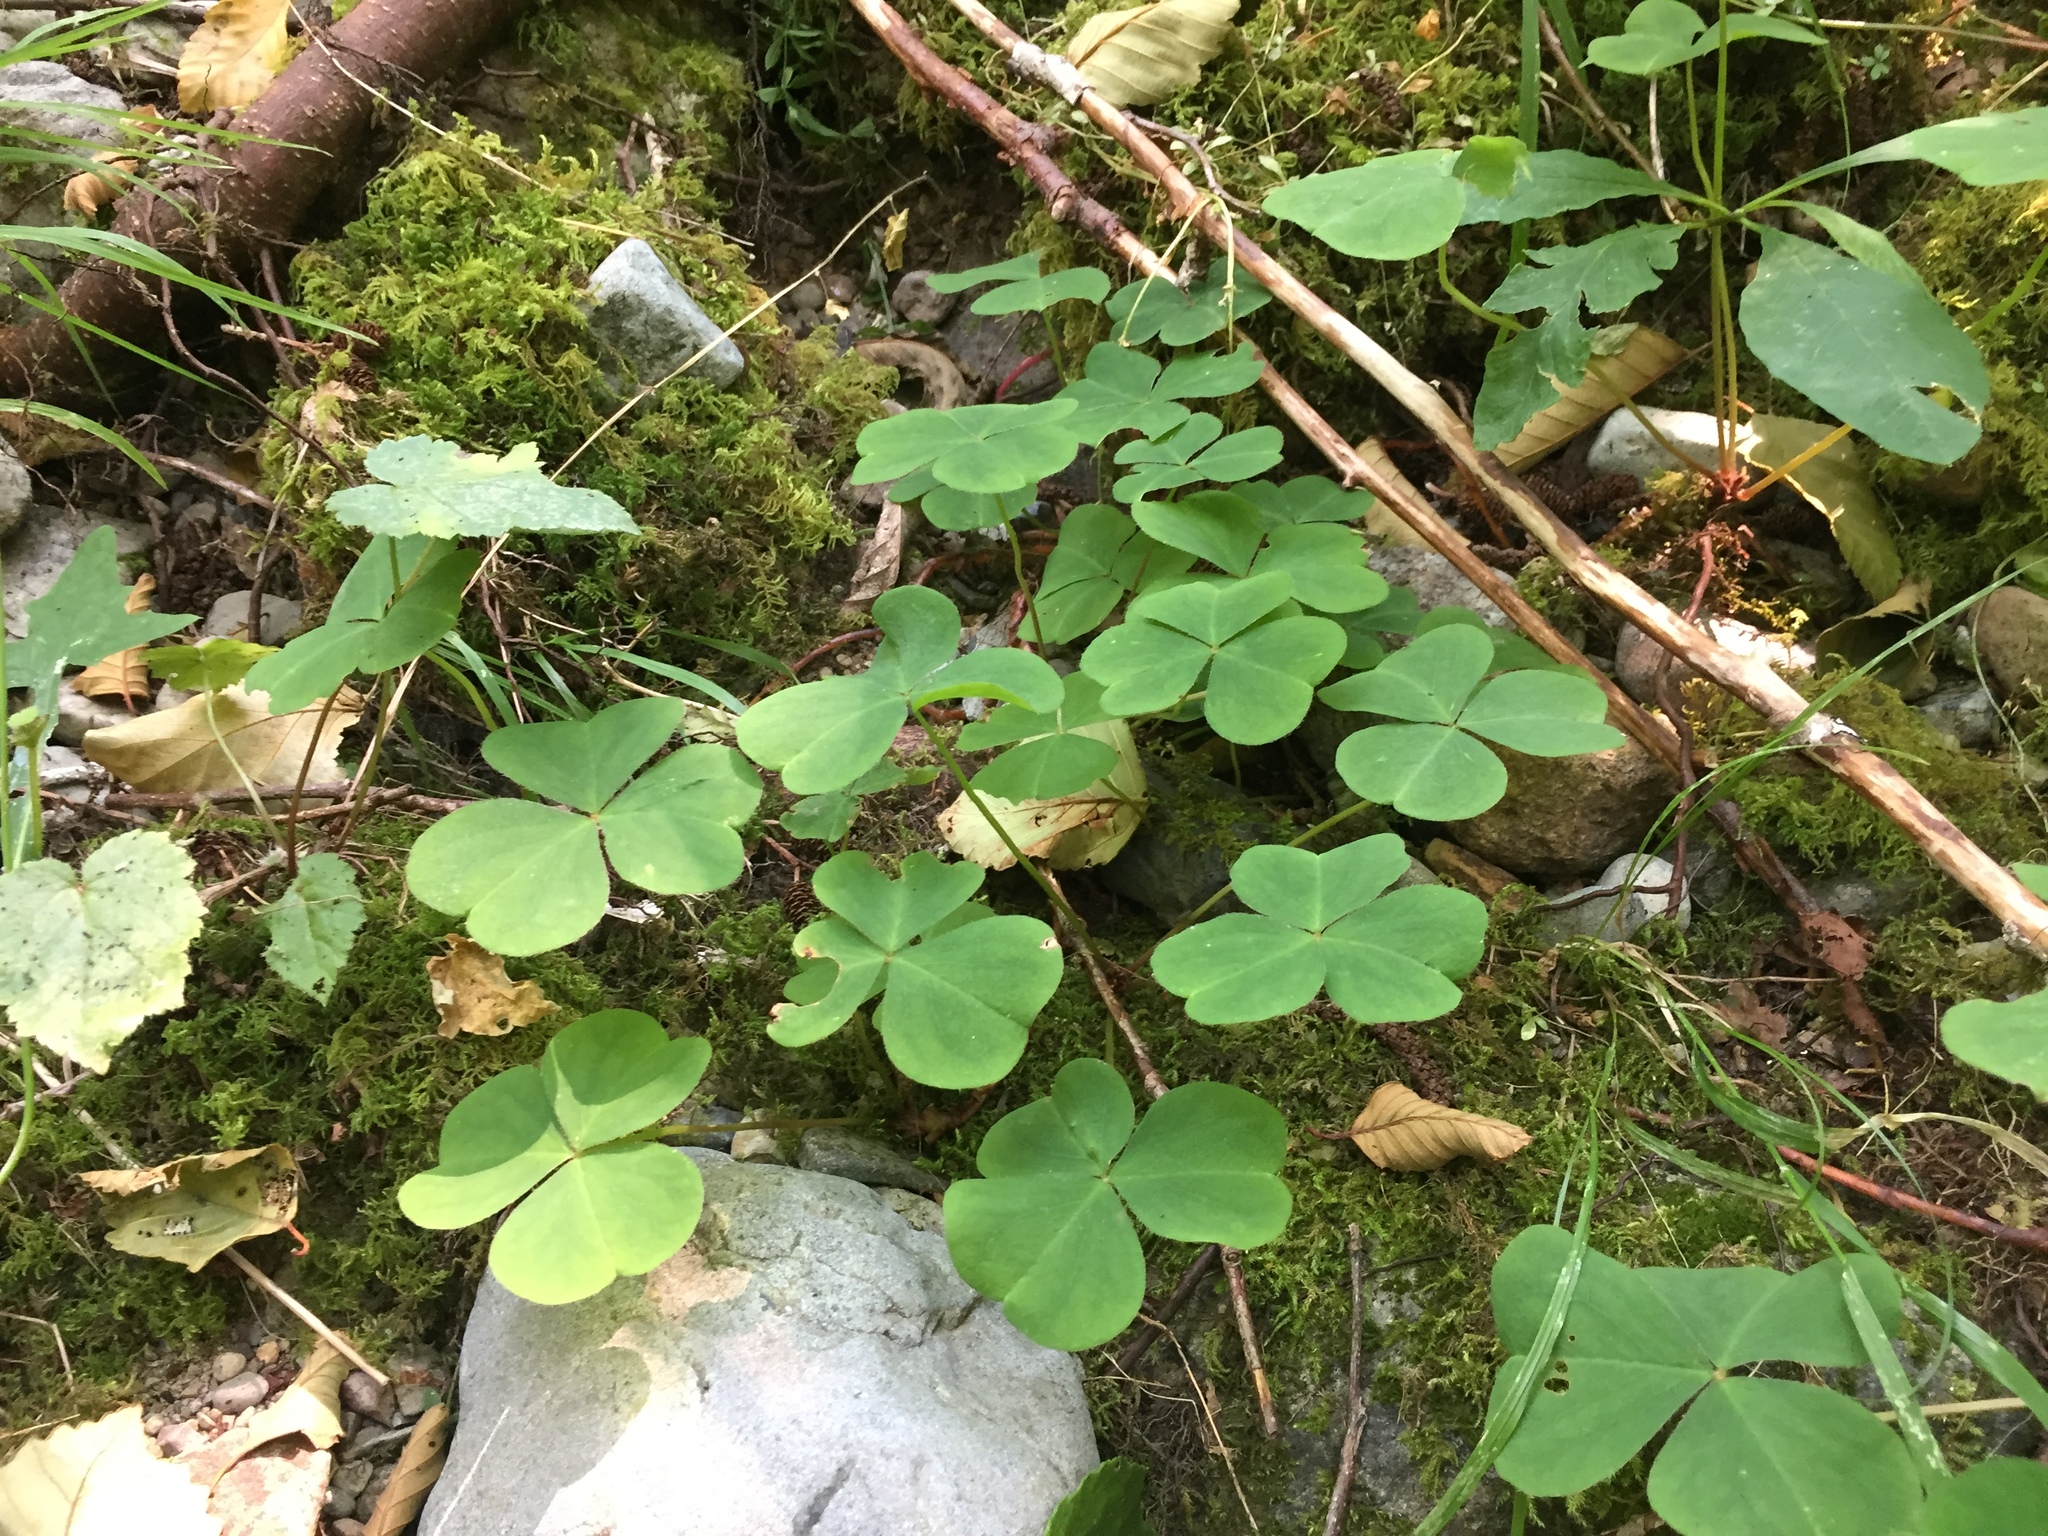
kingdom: Plantae
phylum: Tracheophyta
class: Magnoliopsida
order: Oxalidales
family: Oxalidaceae
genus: Oxalis
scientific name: Oxalis oregana
